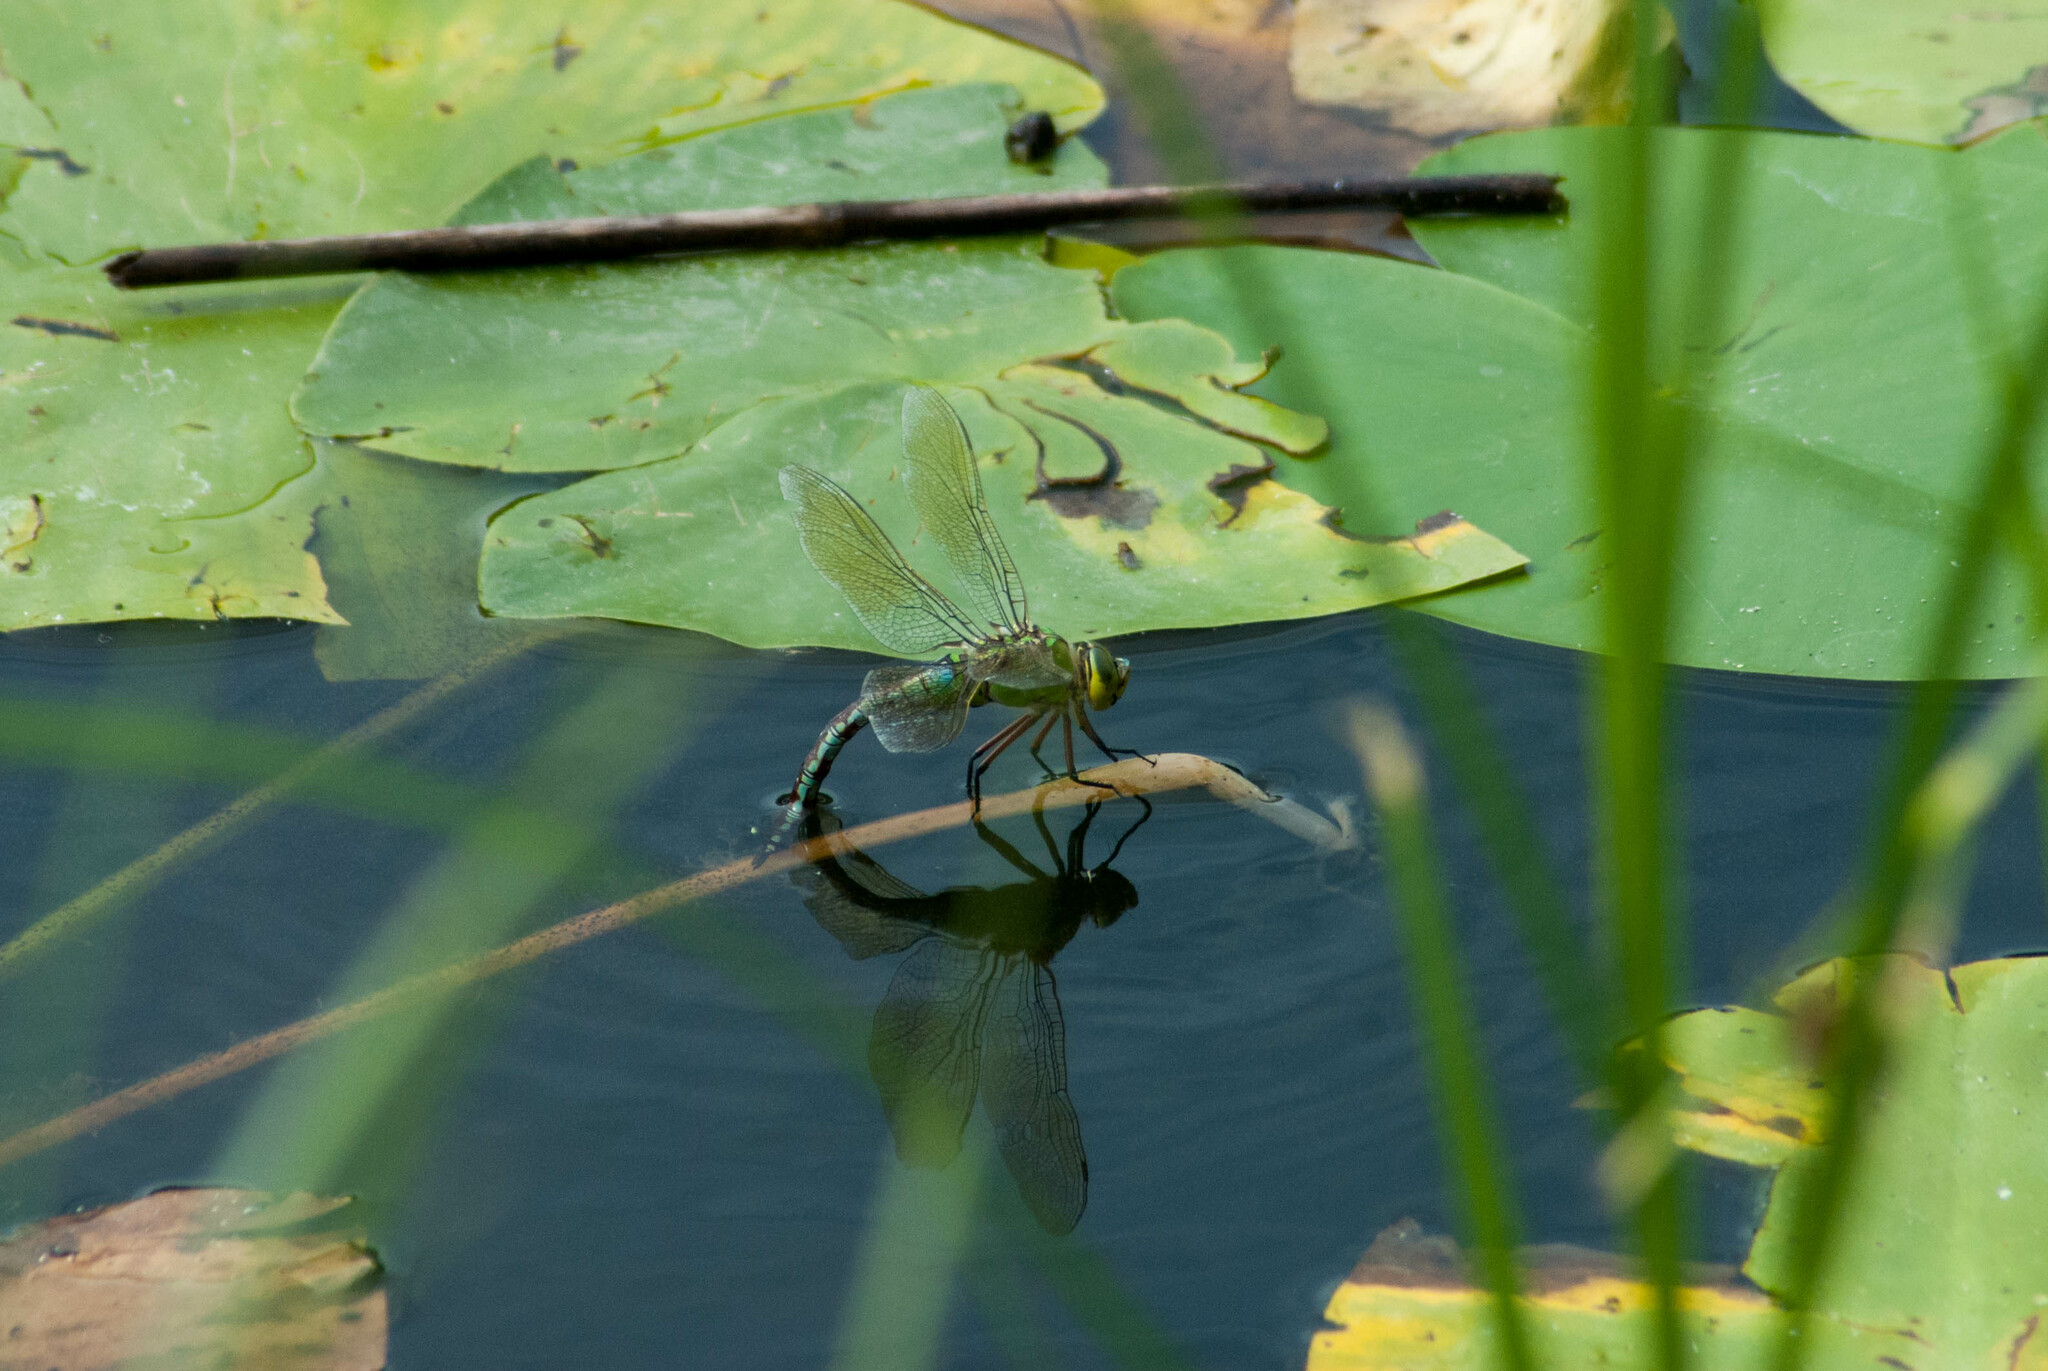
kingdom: Animalia
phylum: Arthropoda
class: Insecta
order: Odonata
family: Aeshnidae
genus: Anax
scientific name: Anax imperator
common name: Emperor dragonfly
